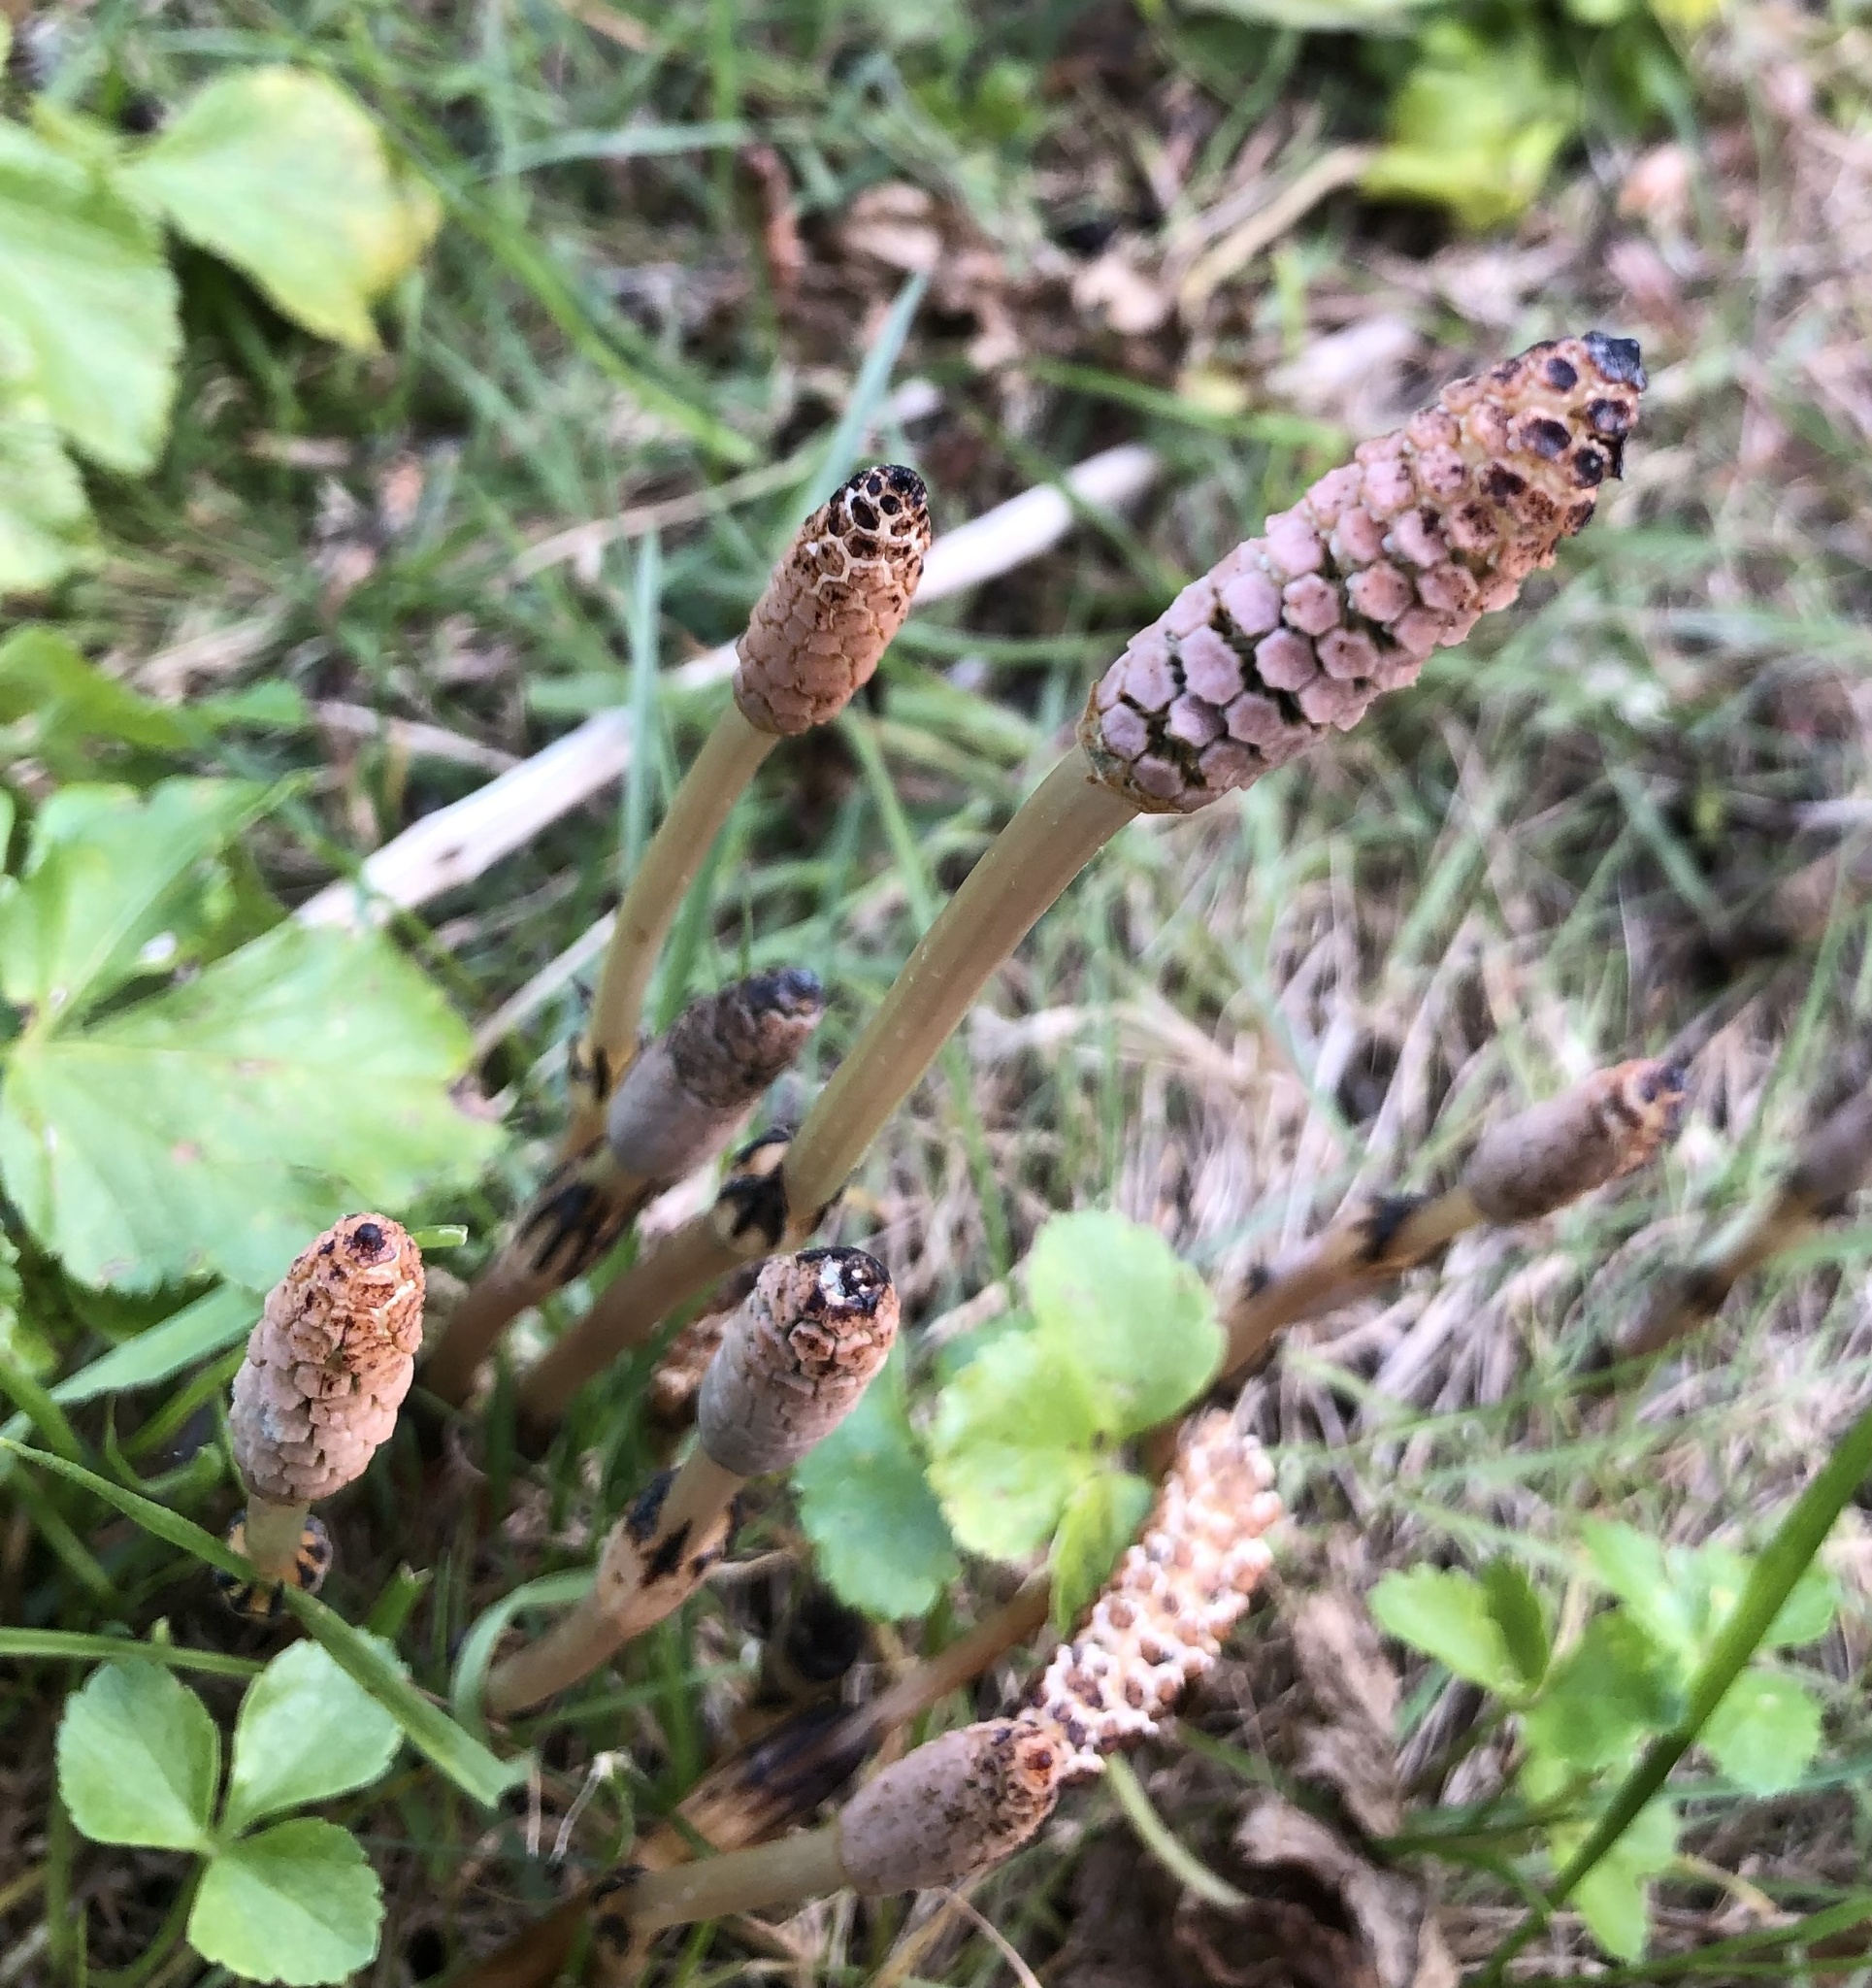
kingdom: Plantae
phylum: Tracheophyta
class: Polypodiopsida
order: Equisetales
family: Equisetaceae
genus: Equisetum
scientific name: Equisetum arvense
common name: Field horsetail
